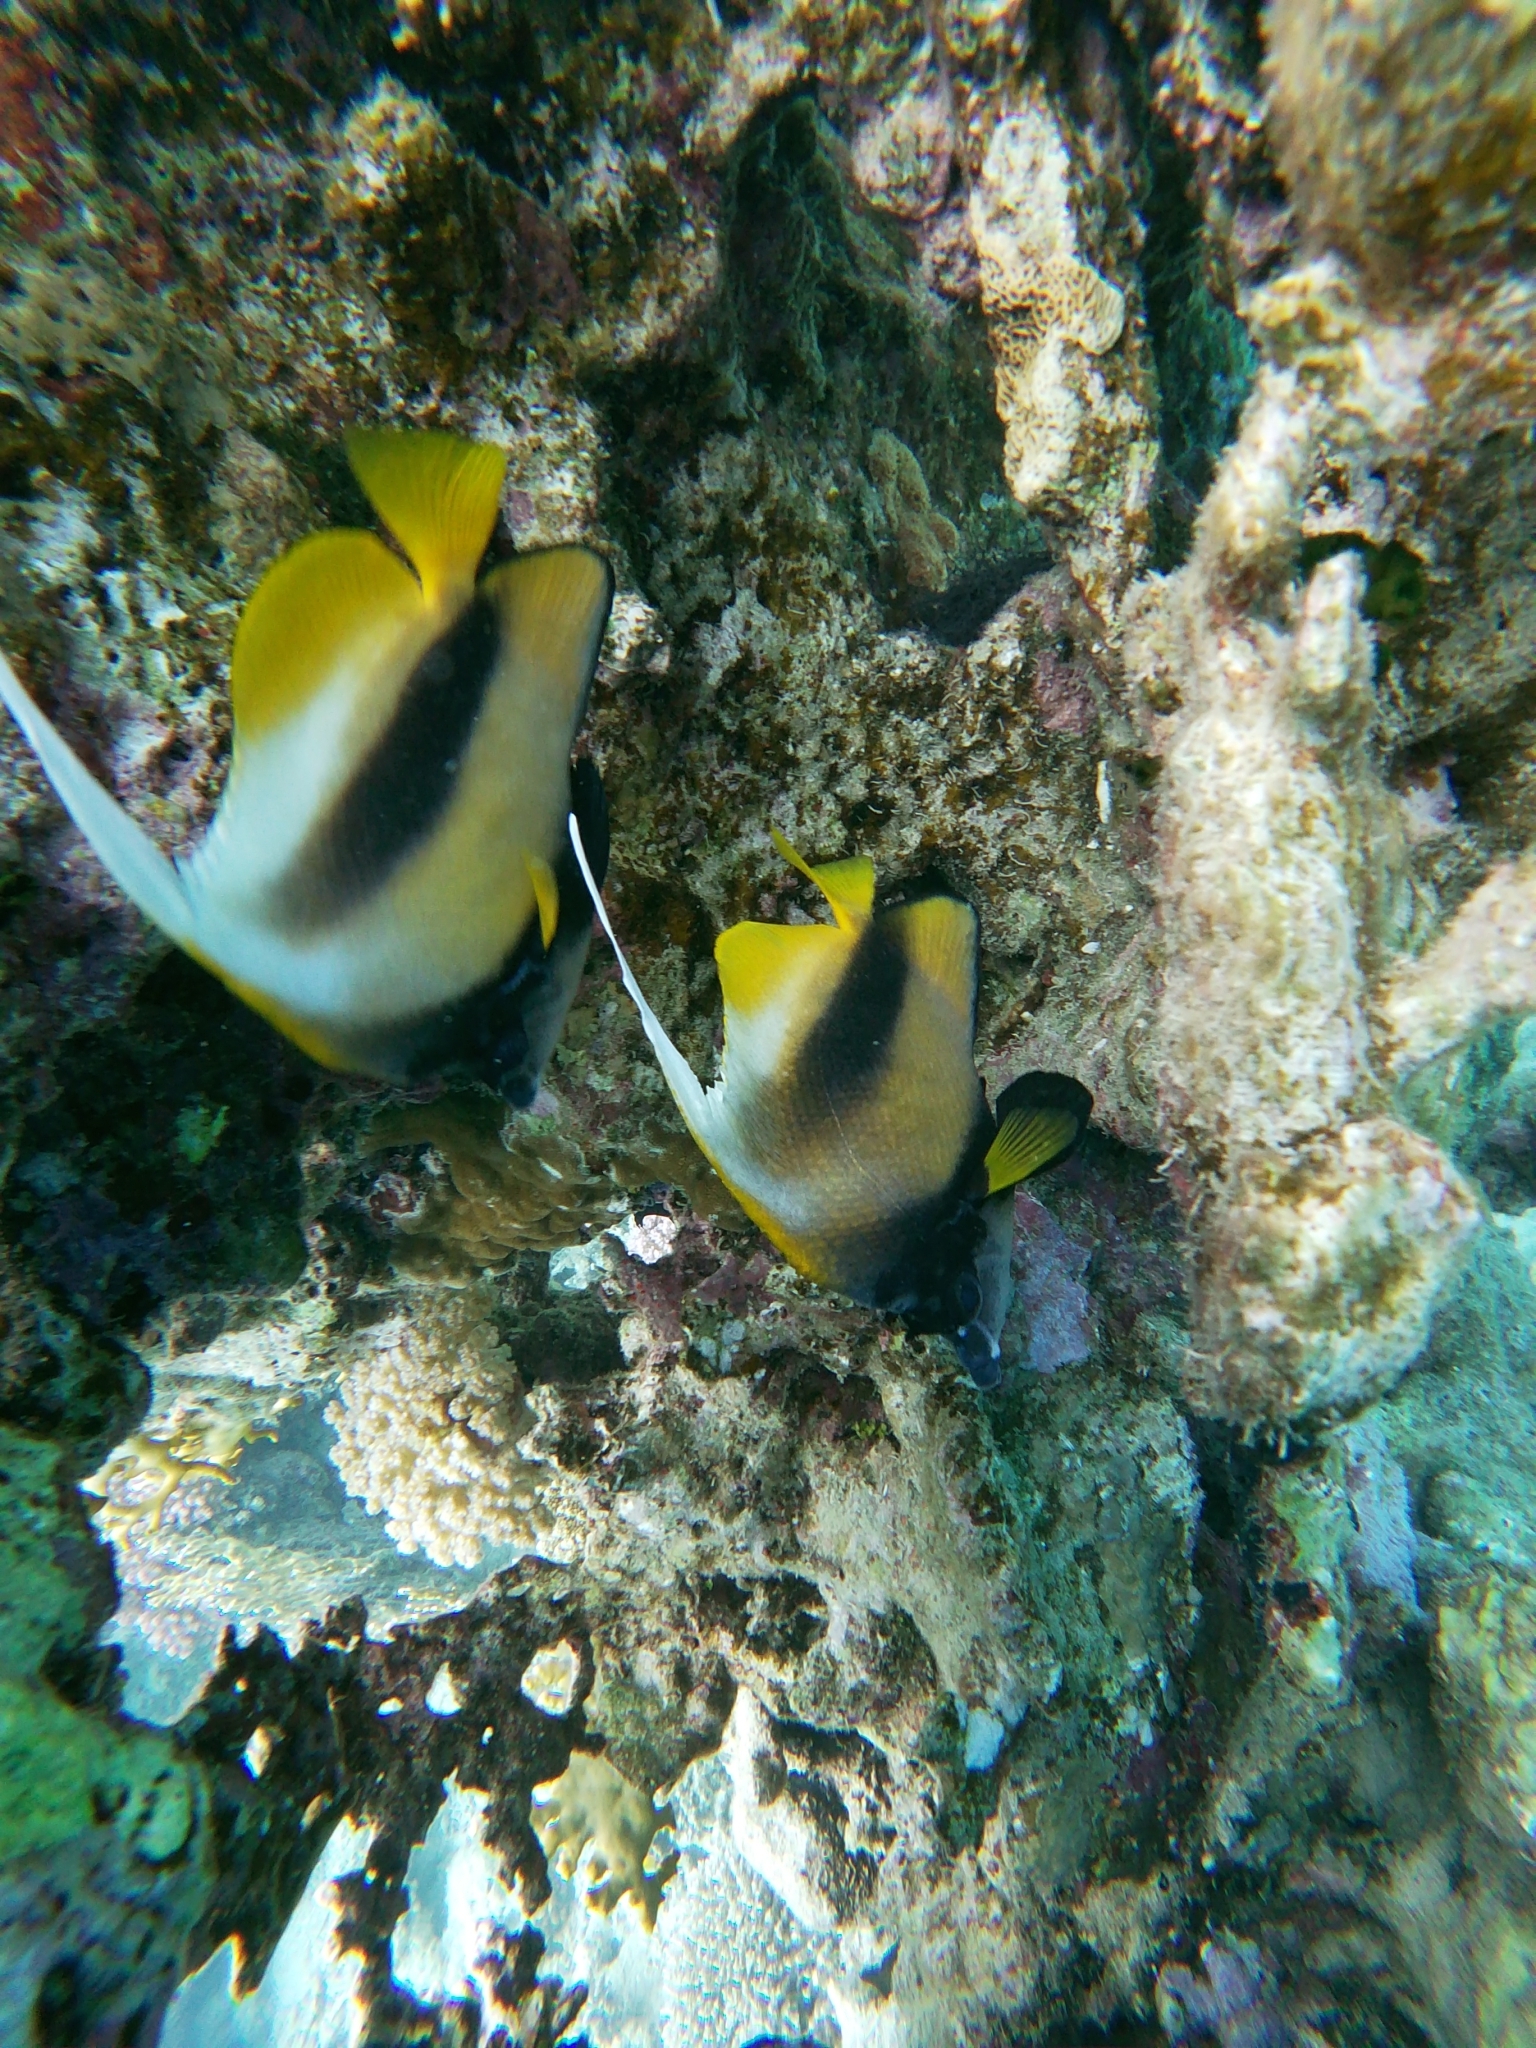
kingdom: Animalia
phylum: Chordata
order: Perciformes
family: Chaetodontidae
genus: Heniochus
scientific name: Heniochus intermedius
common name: Red sea bannerfish
